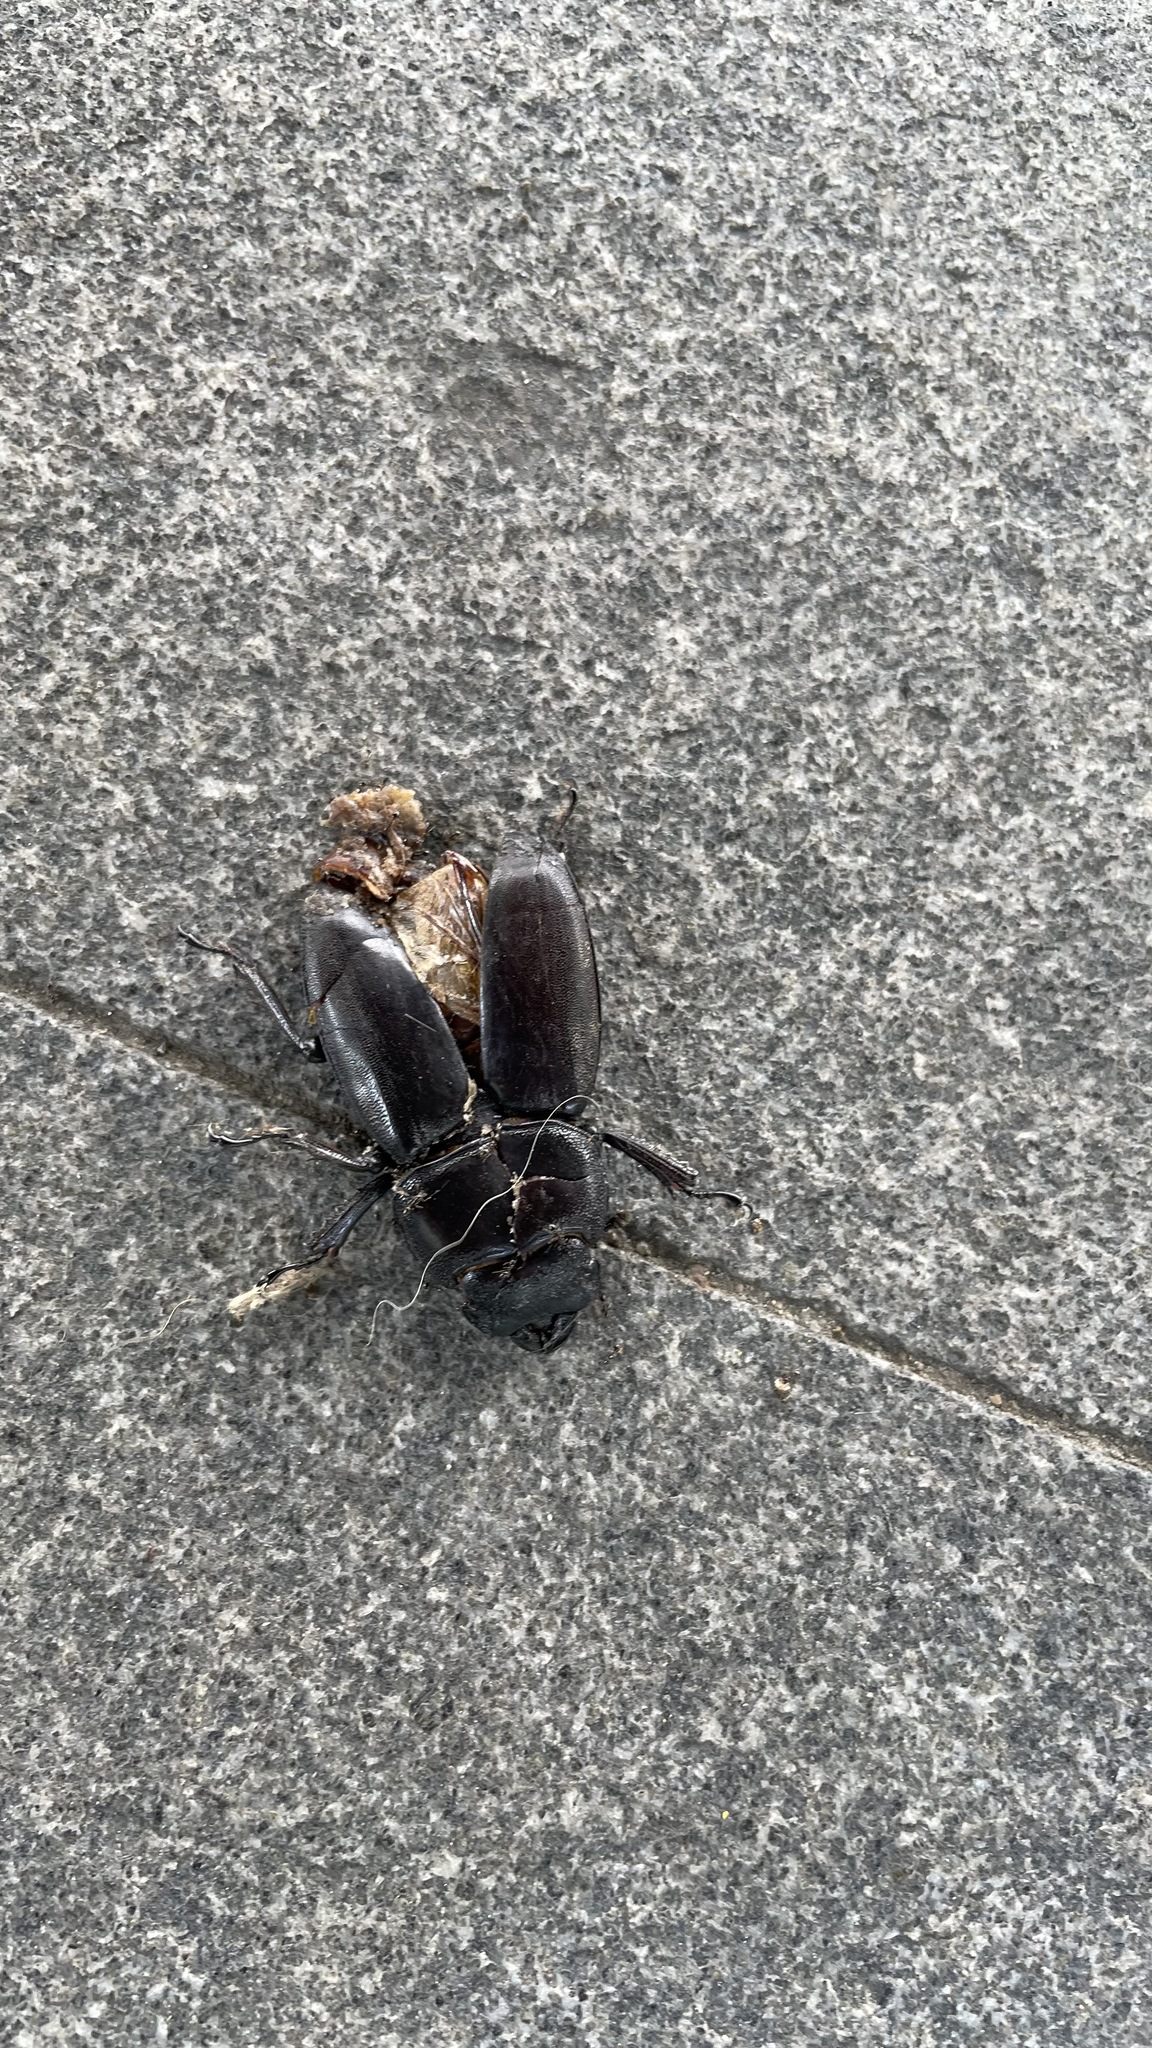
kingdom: Animalia
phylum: Arthropoda
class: Insecta
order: Coleoptera
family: Lucanidae
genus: Serrognathus
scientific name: Serrognathus titanus
